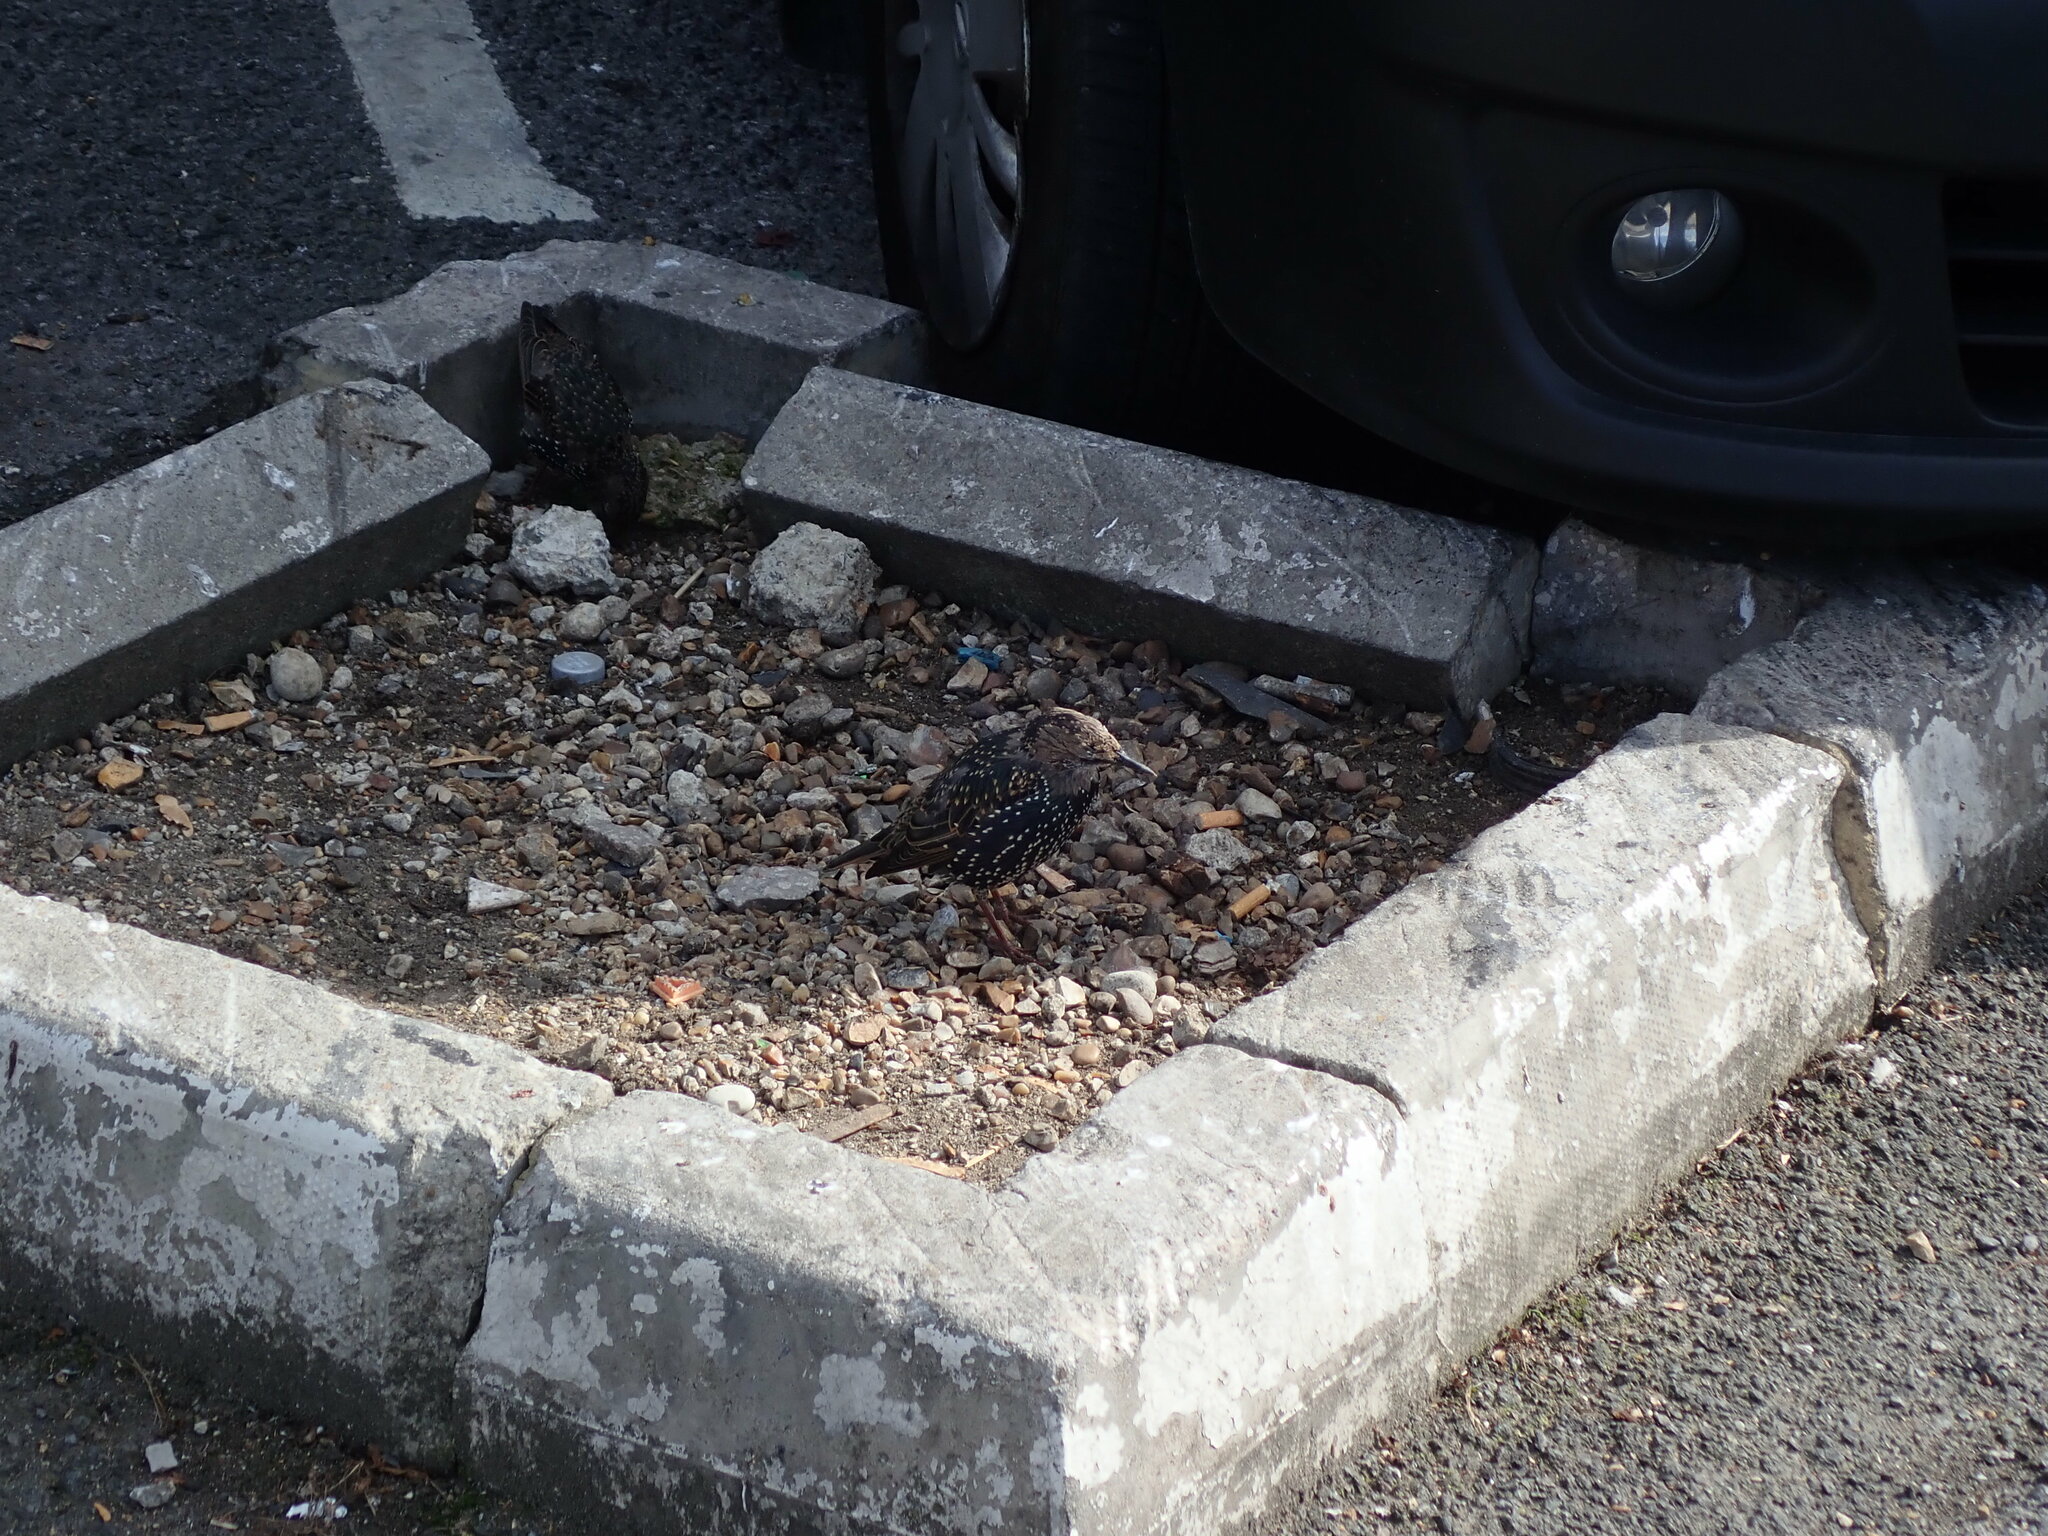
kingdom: Animalia
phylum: Chordata
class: Aves
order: Passeriformes
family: Sturnidae
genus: Sturnus
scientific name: Sturnus vulgaris
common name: Common starling
